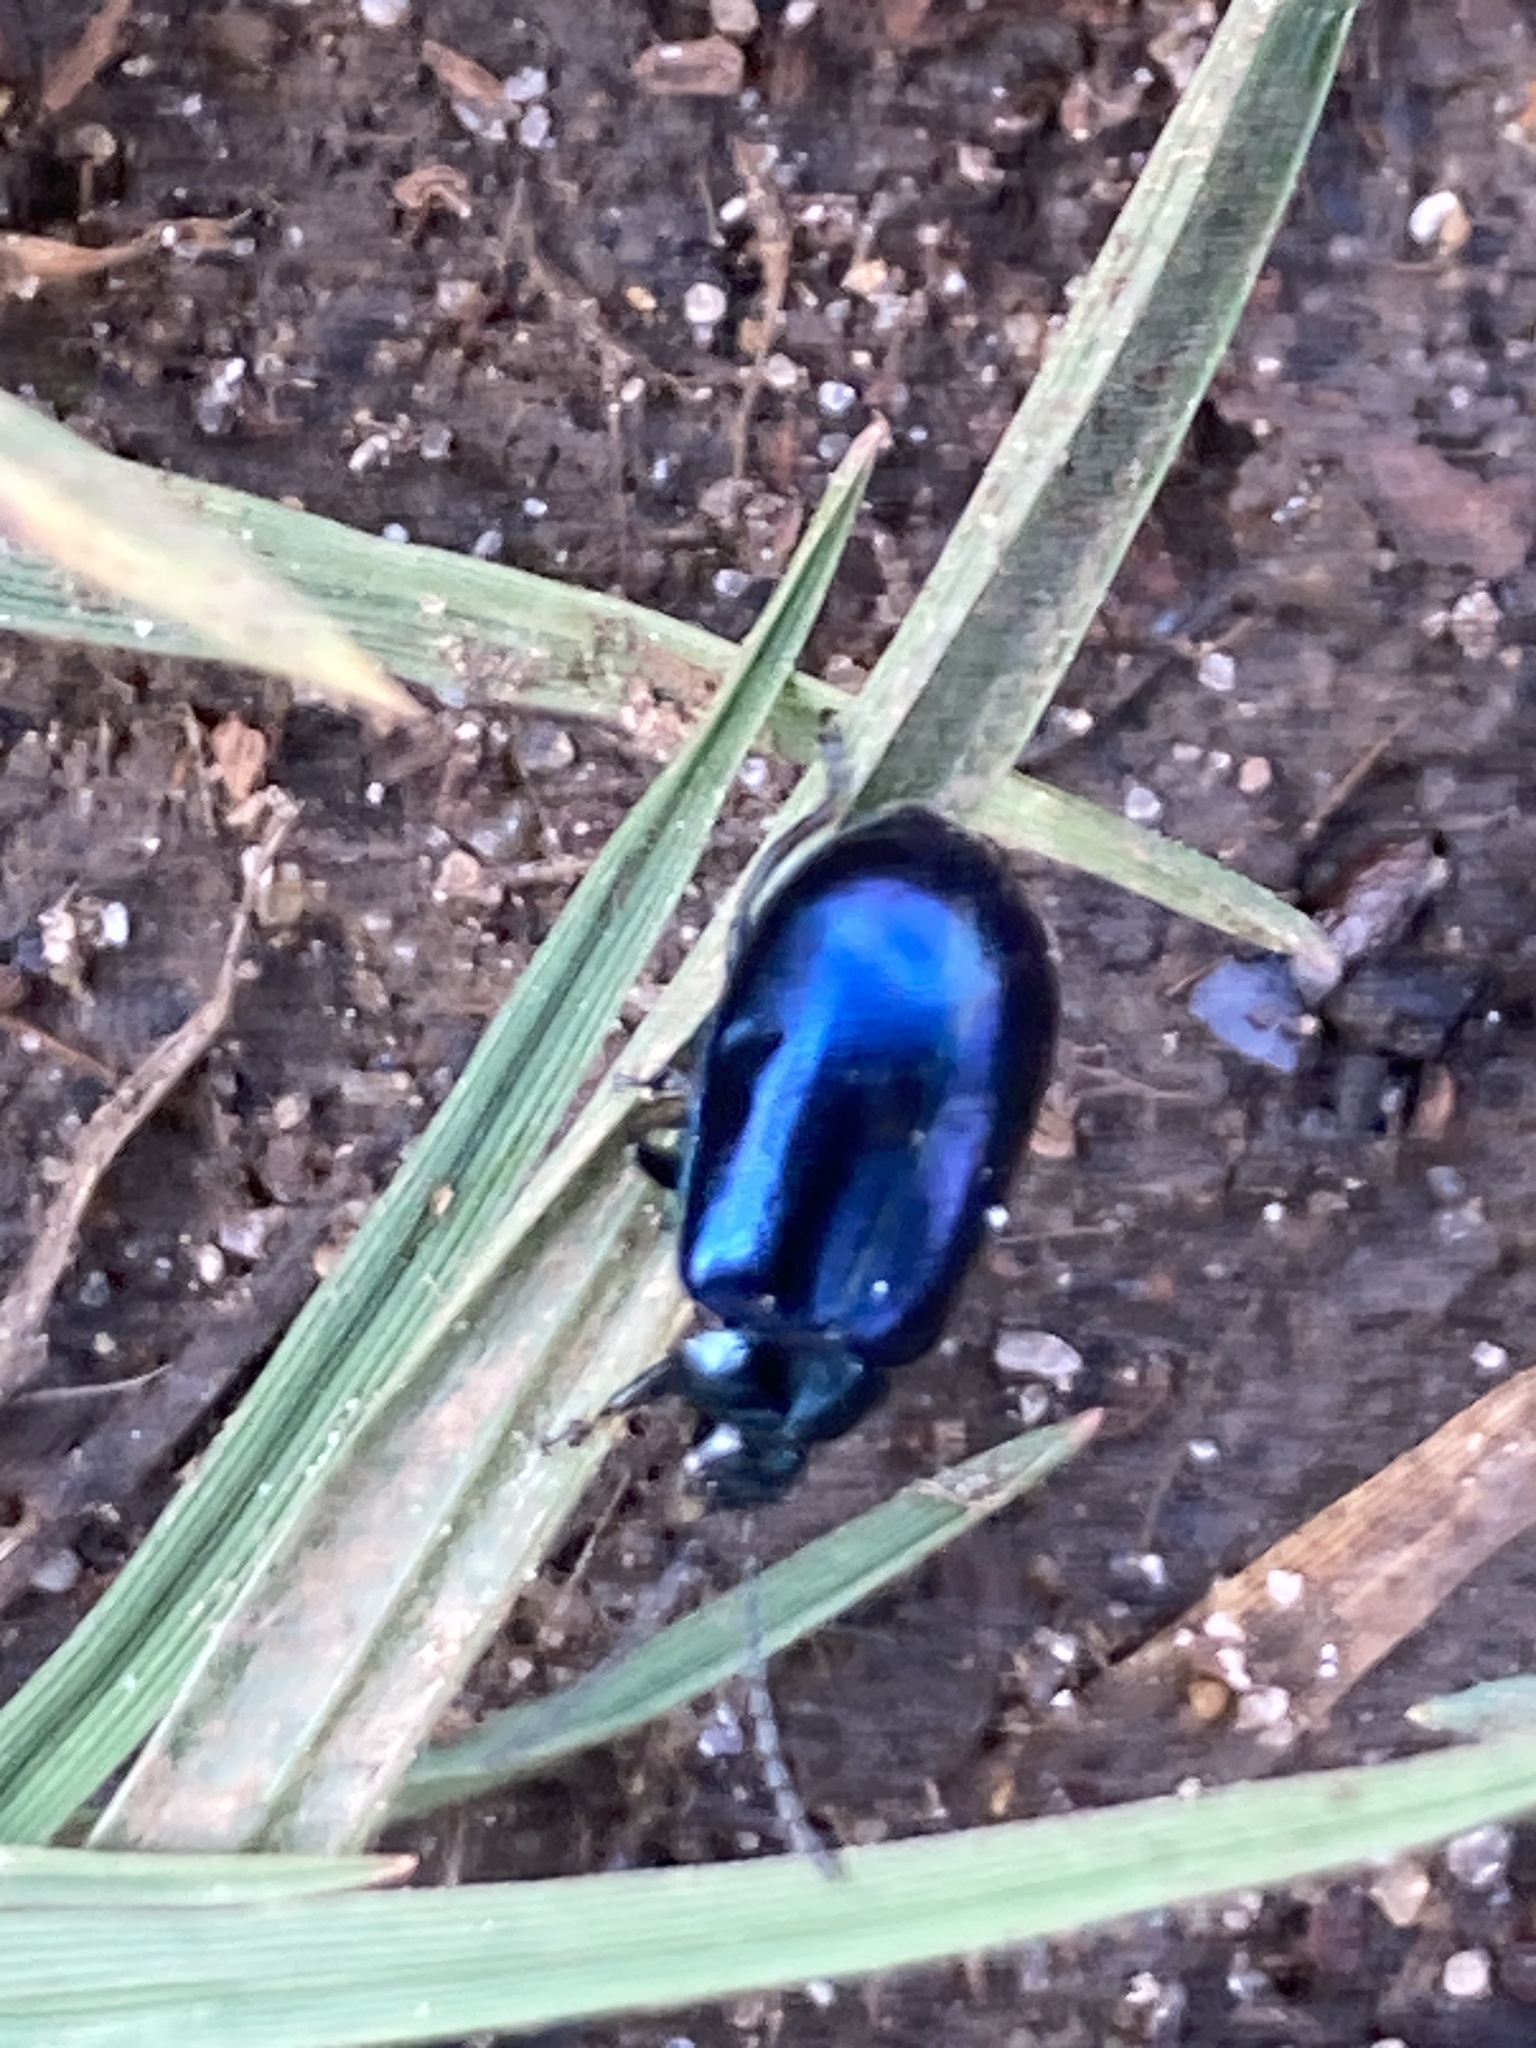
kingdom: Animalia
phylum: Arthropoda
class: Insecta
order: Coleoptera
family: Chrysomelidae
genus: Agelastica
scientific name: Agelastica alni
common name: Alder leaf beetle
